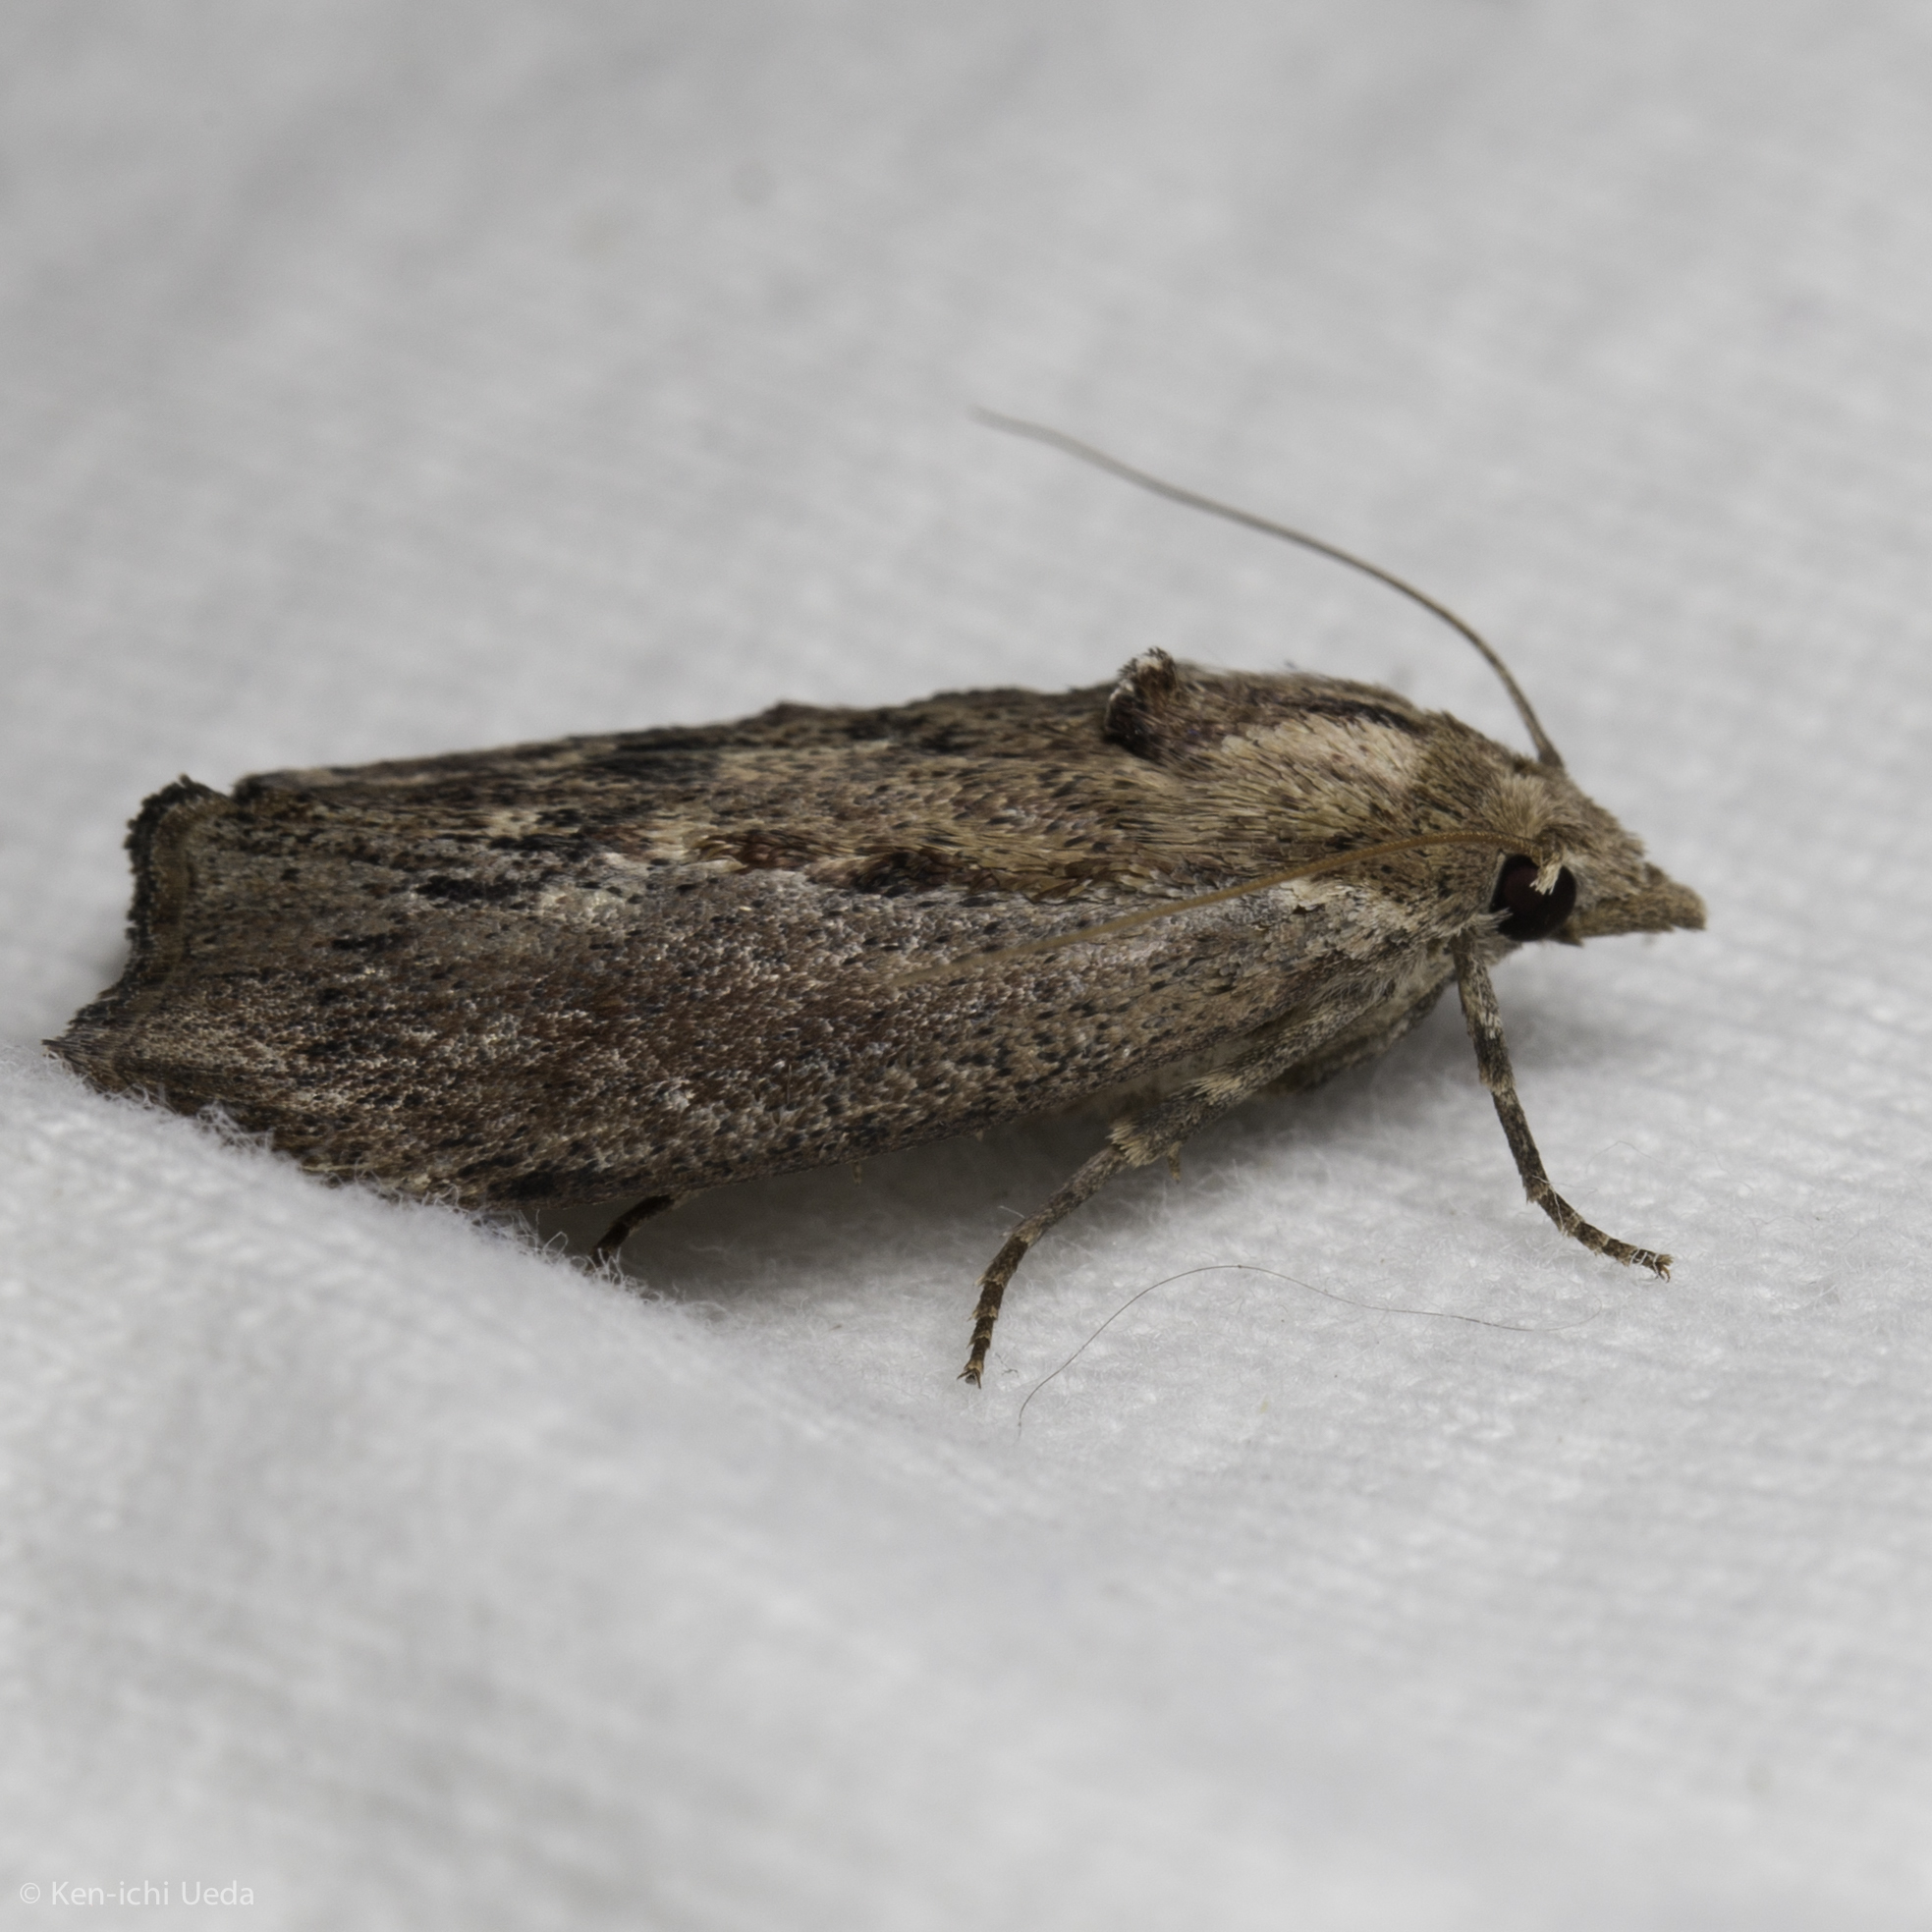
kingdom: Animalia
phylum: Arthropoda
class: Insecta
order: Lepidoptera
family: Pyralidae
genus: Galleria
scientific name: Galleria mellonella
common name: Greater wax moth
